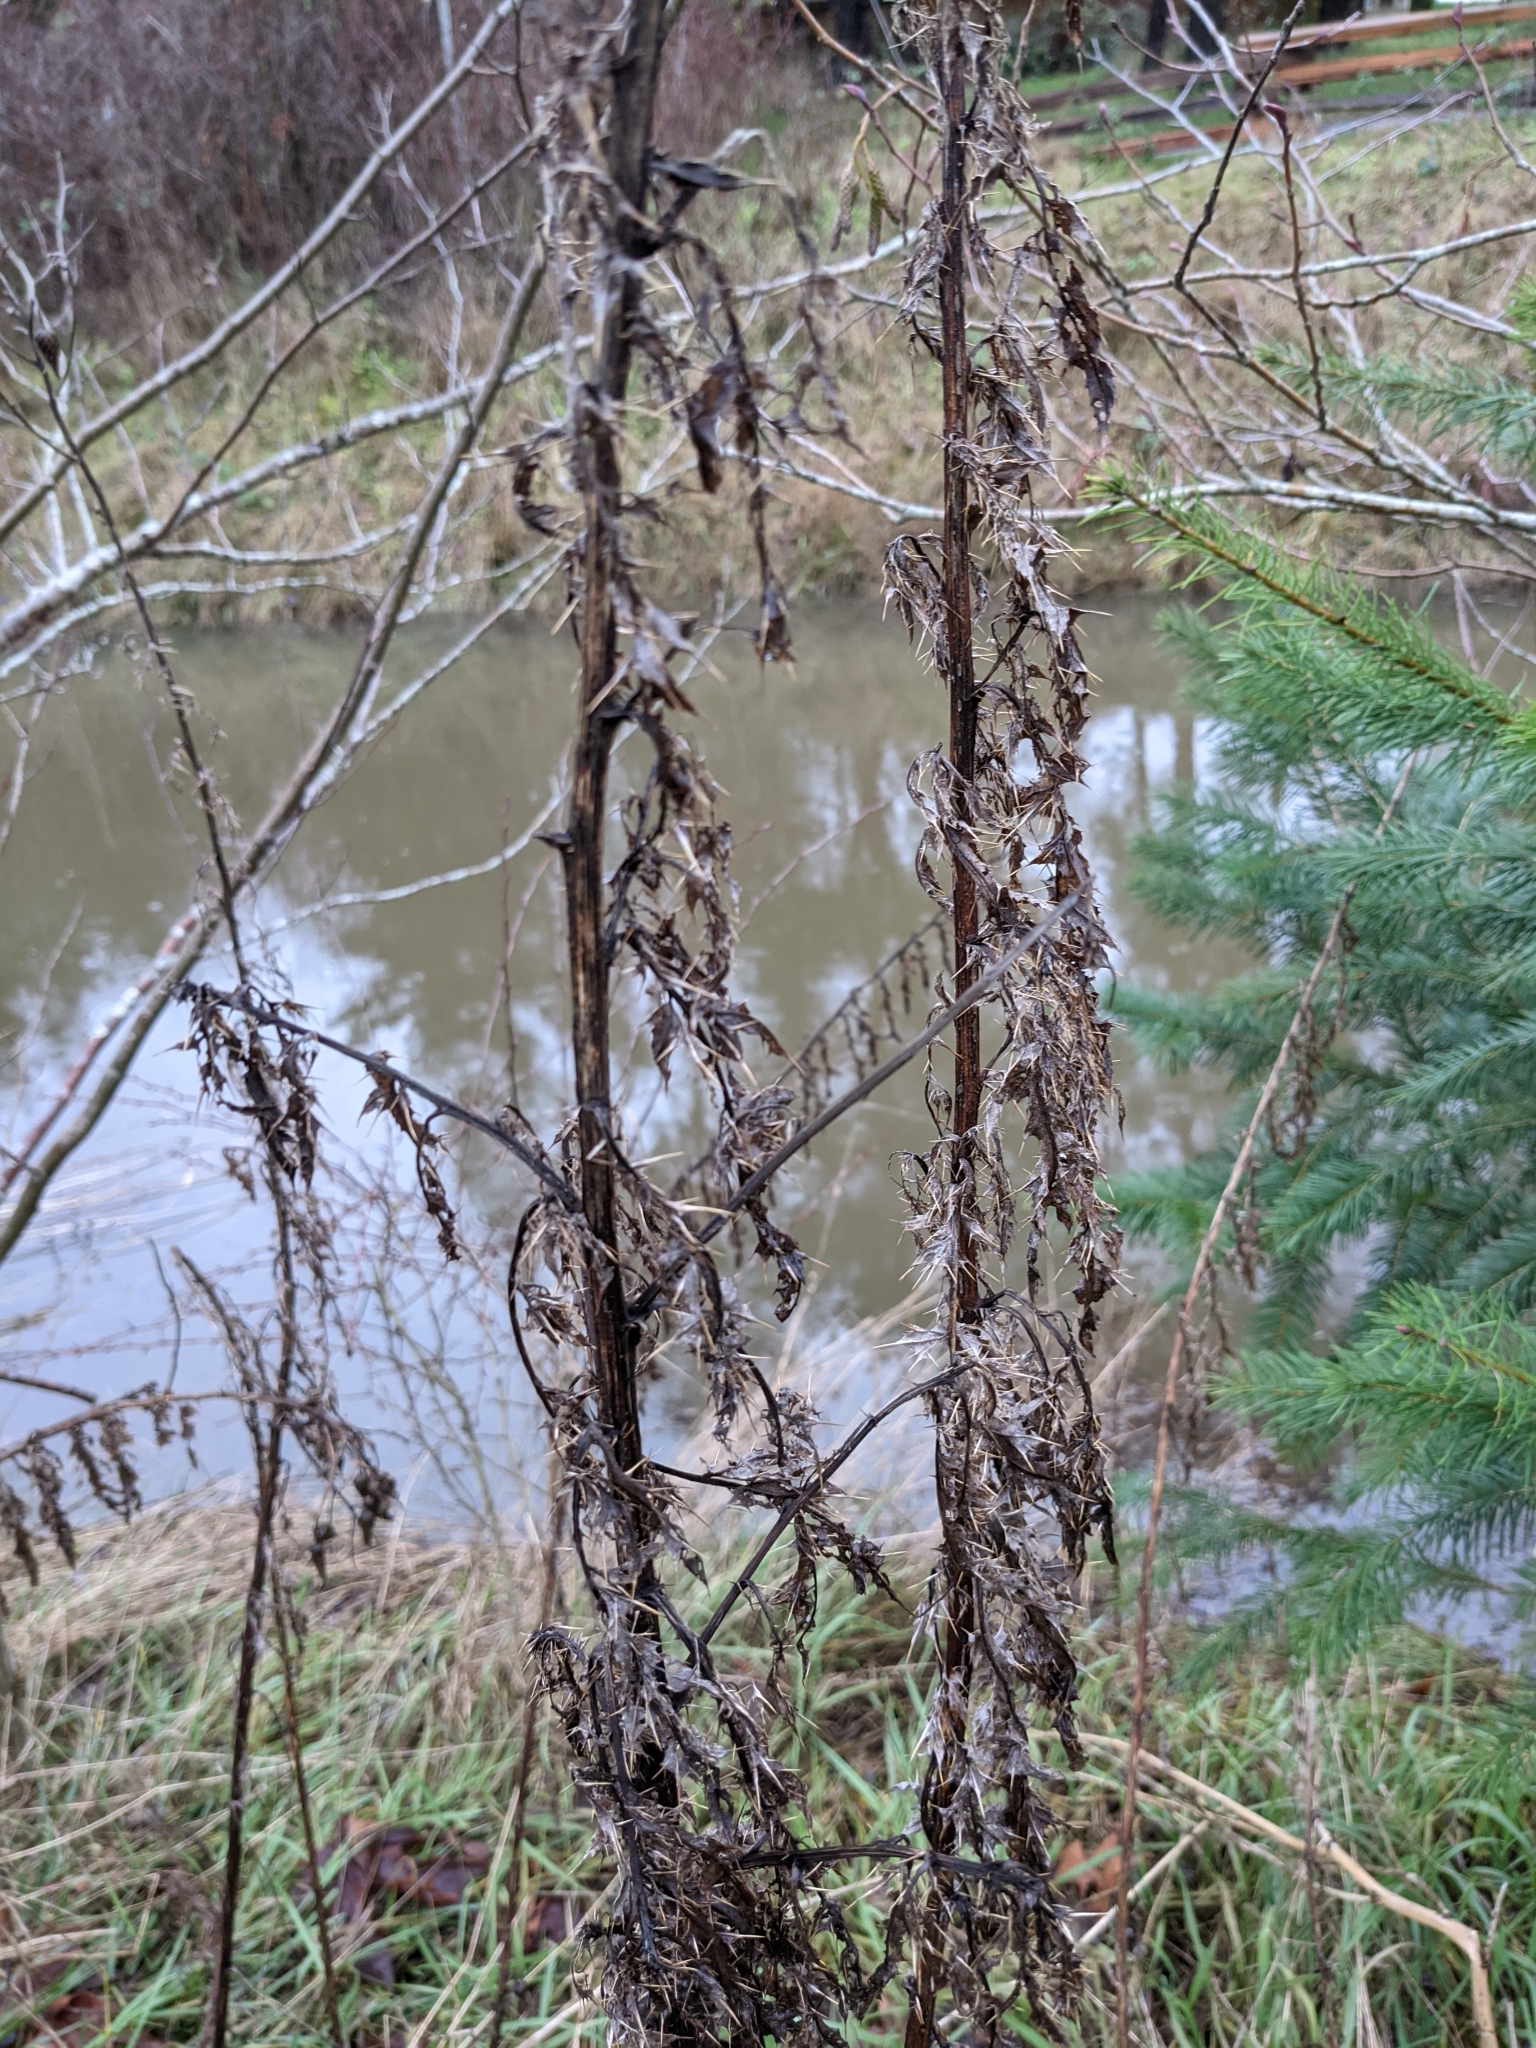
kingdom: Plantae
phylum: Tracheophyta
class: Magnoliopsida
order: Asterales
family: Asteraceae
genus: Cirsium
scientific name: Cirsium arvense
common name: Creeping thistle
